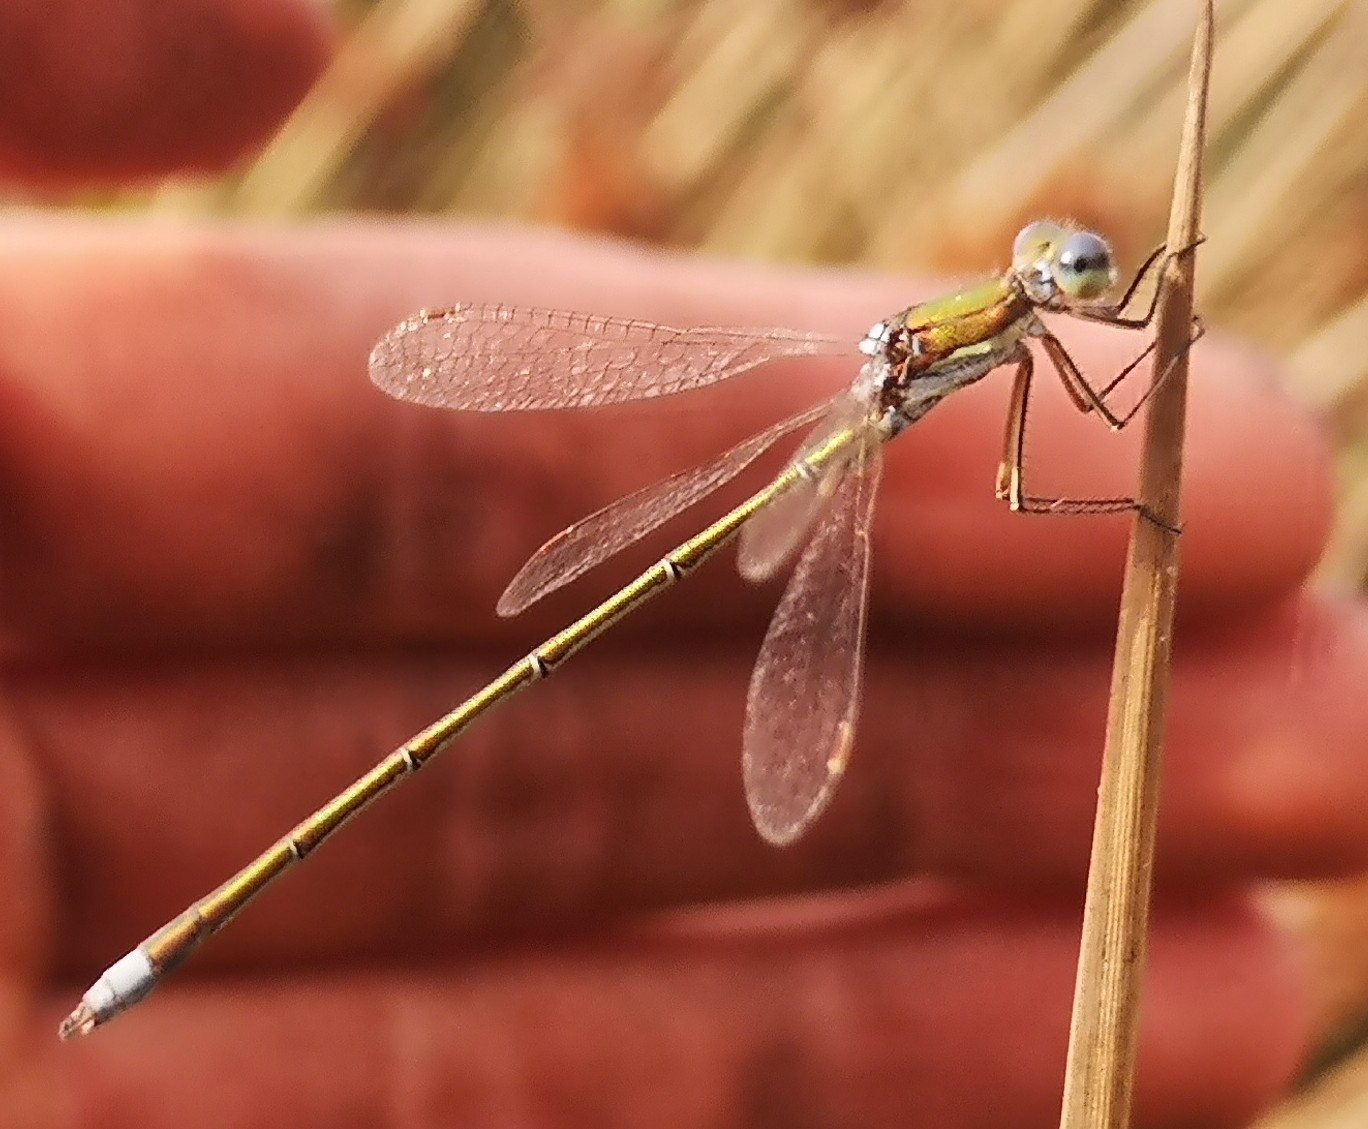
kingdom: Animalia
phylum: Arthropoda
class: Insecta
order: Odonata
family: Lestidae
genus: Lestes
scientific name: Lestes virens
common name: Small emerald spreadwing
